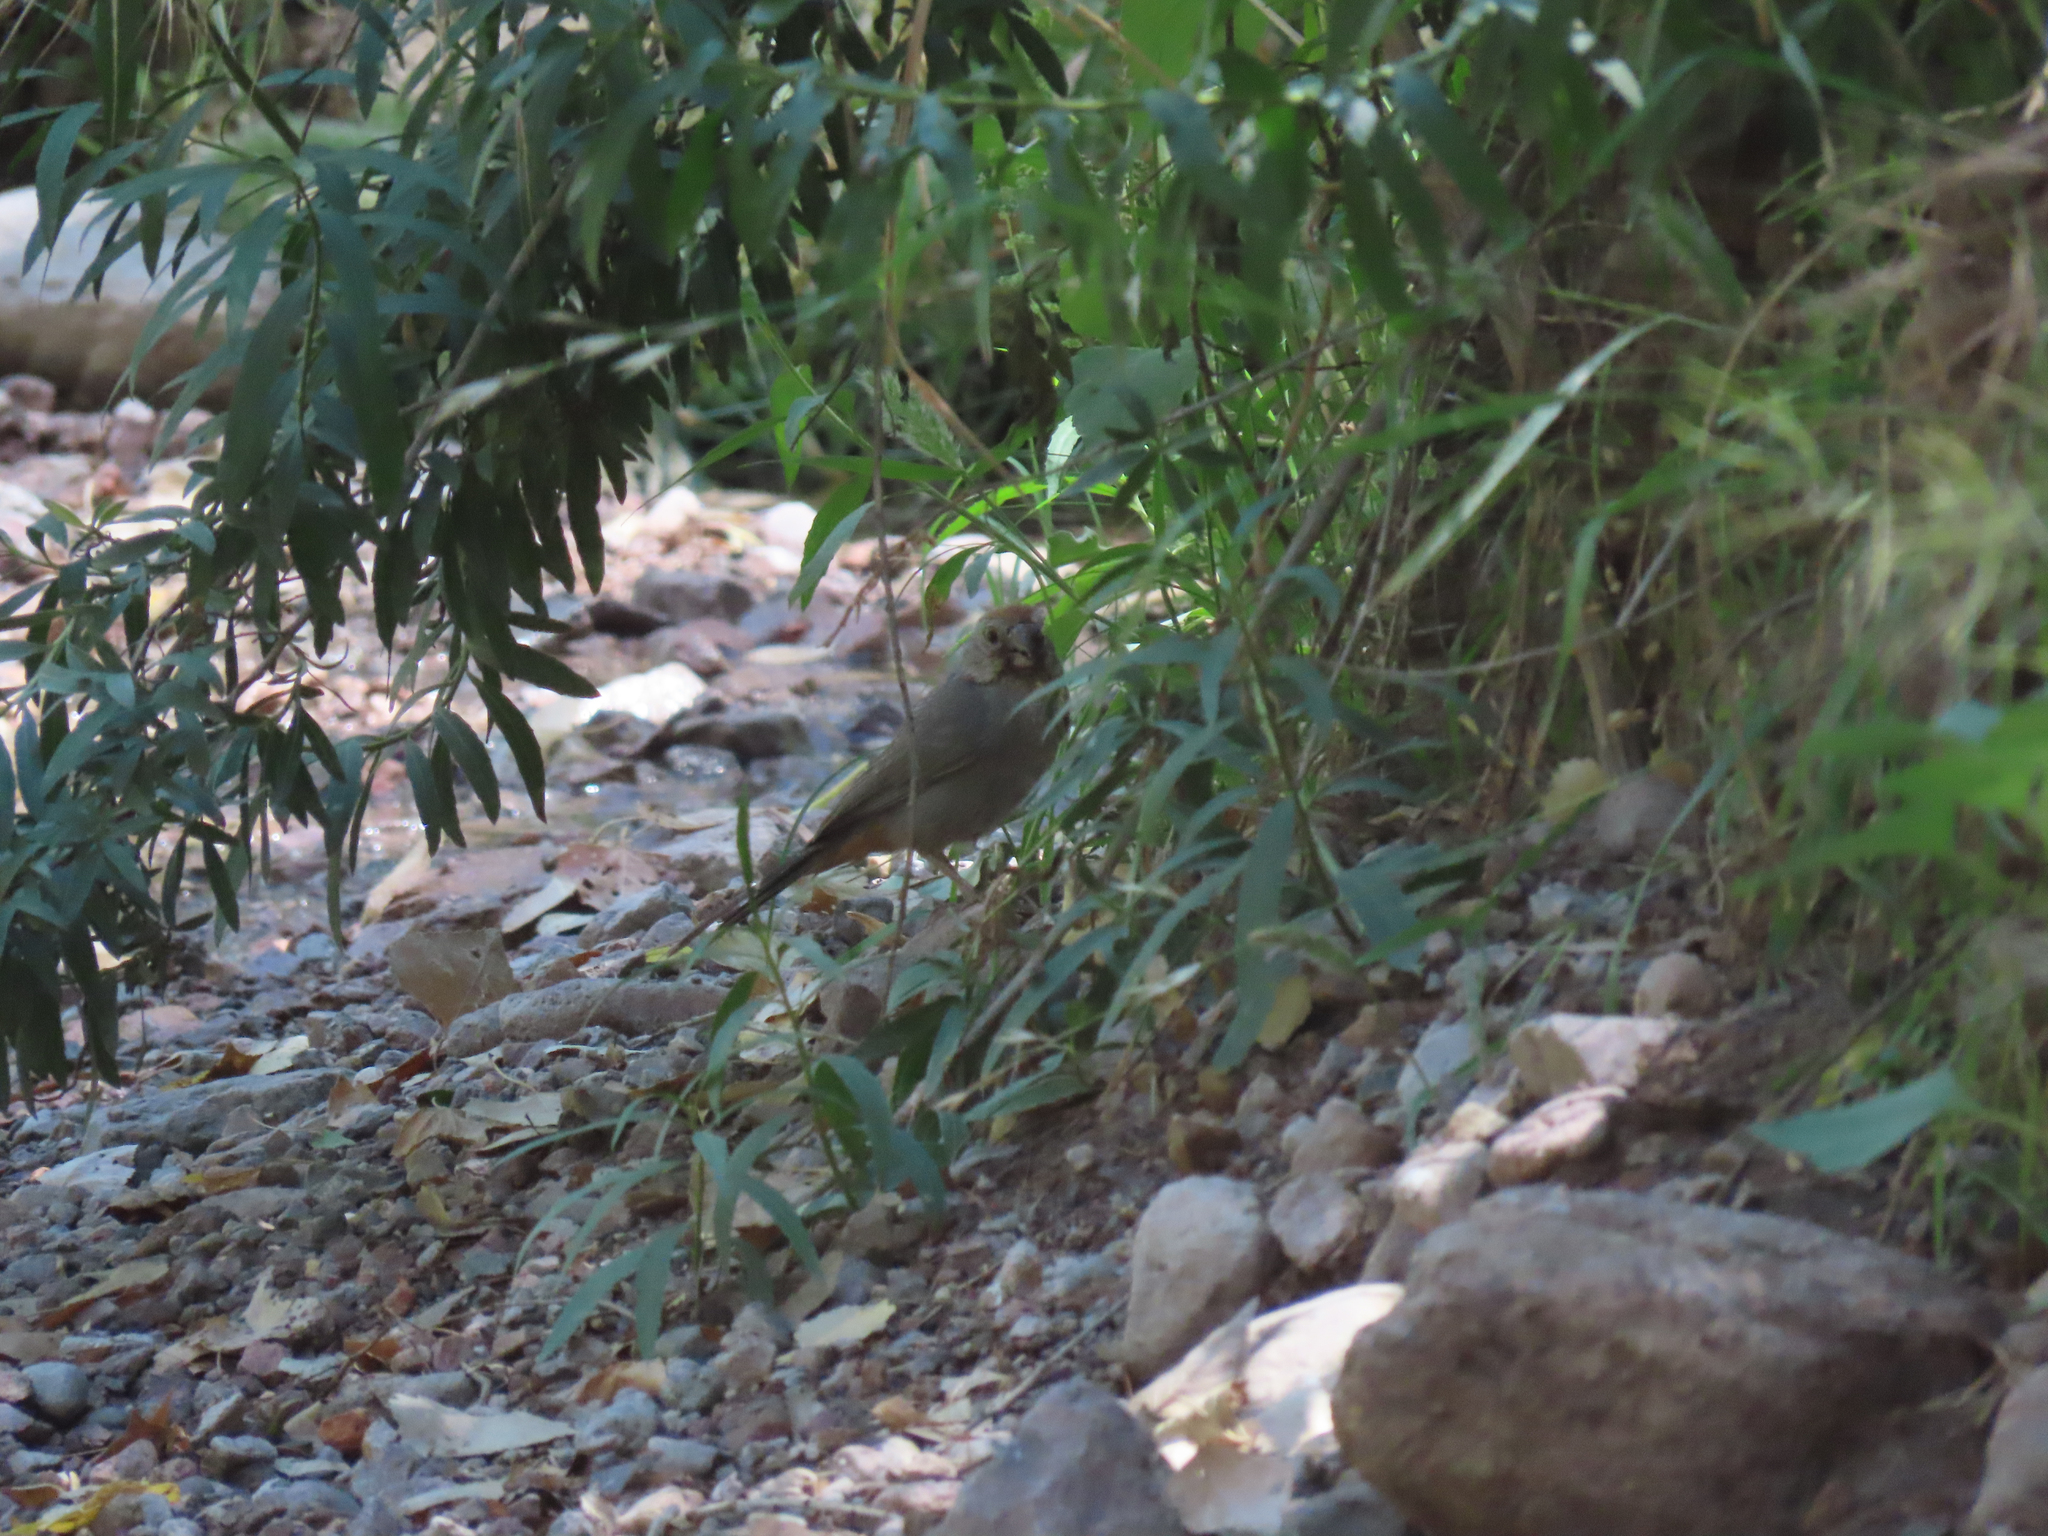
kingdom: Animalia
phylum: Chordata
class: Aves
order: Passeriformes
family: Passerellidae
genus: Melozone
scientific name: Melozone fusca
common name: Canyon towhee
